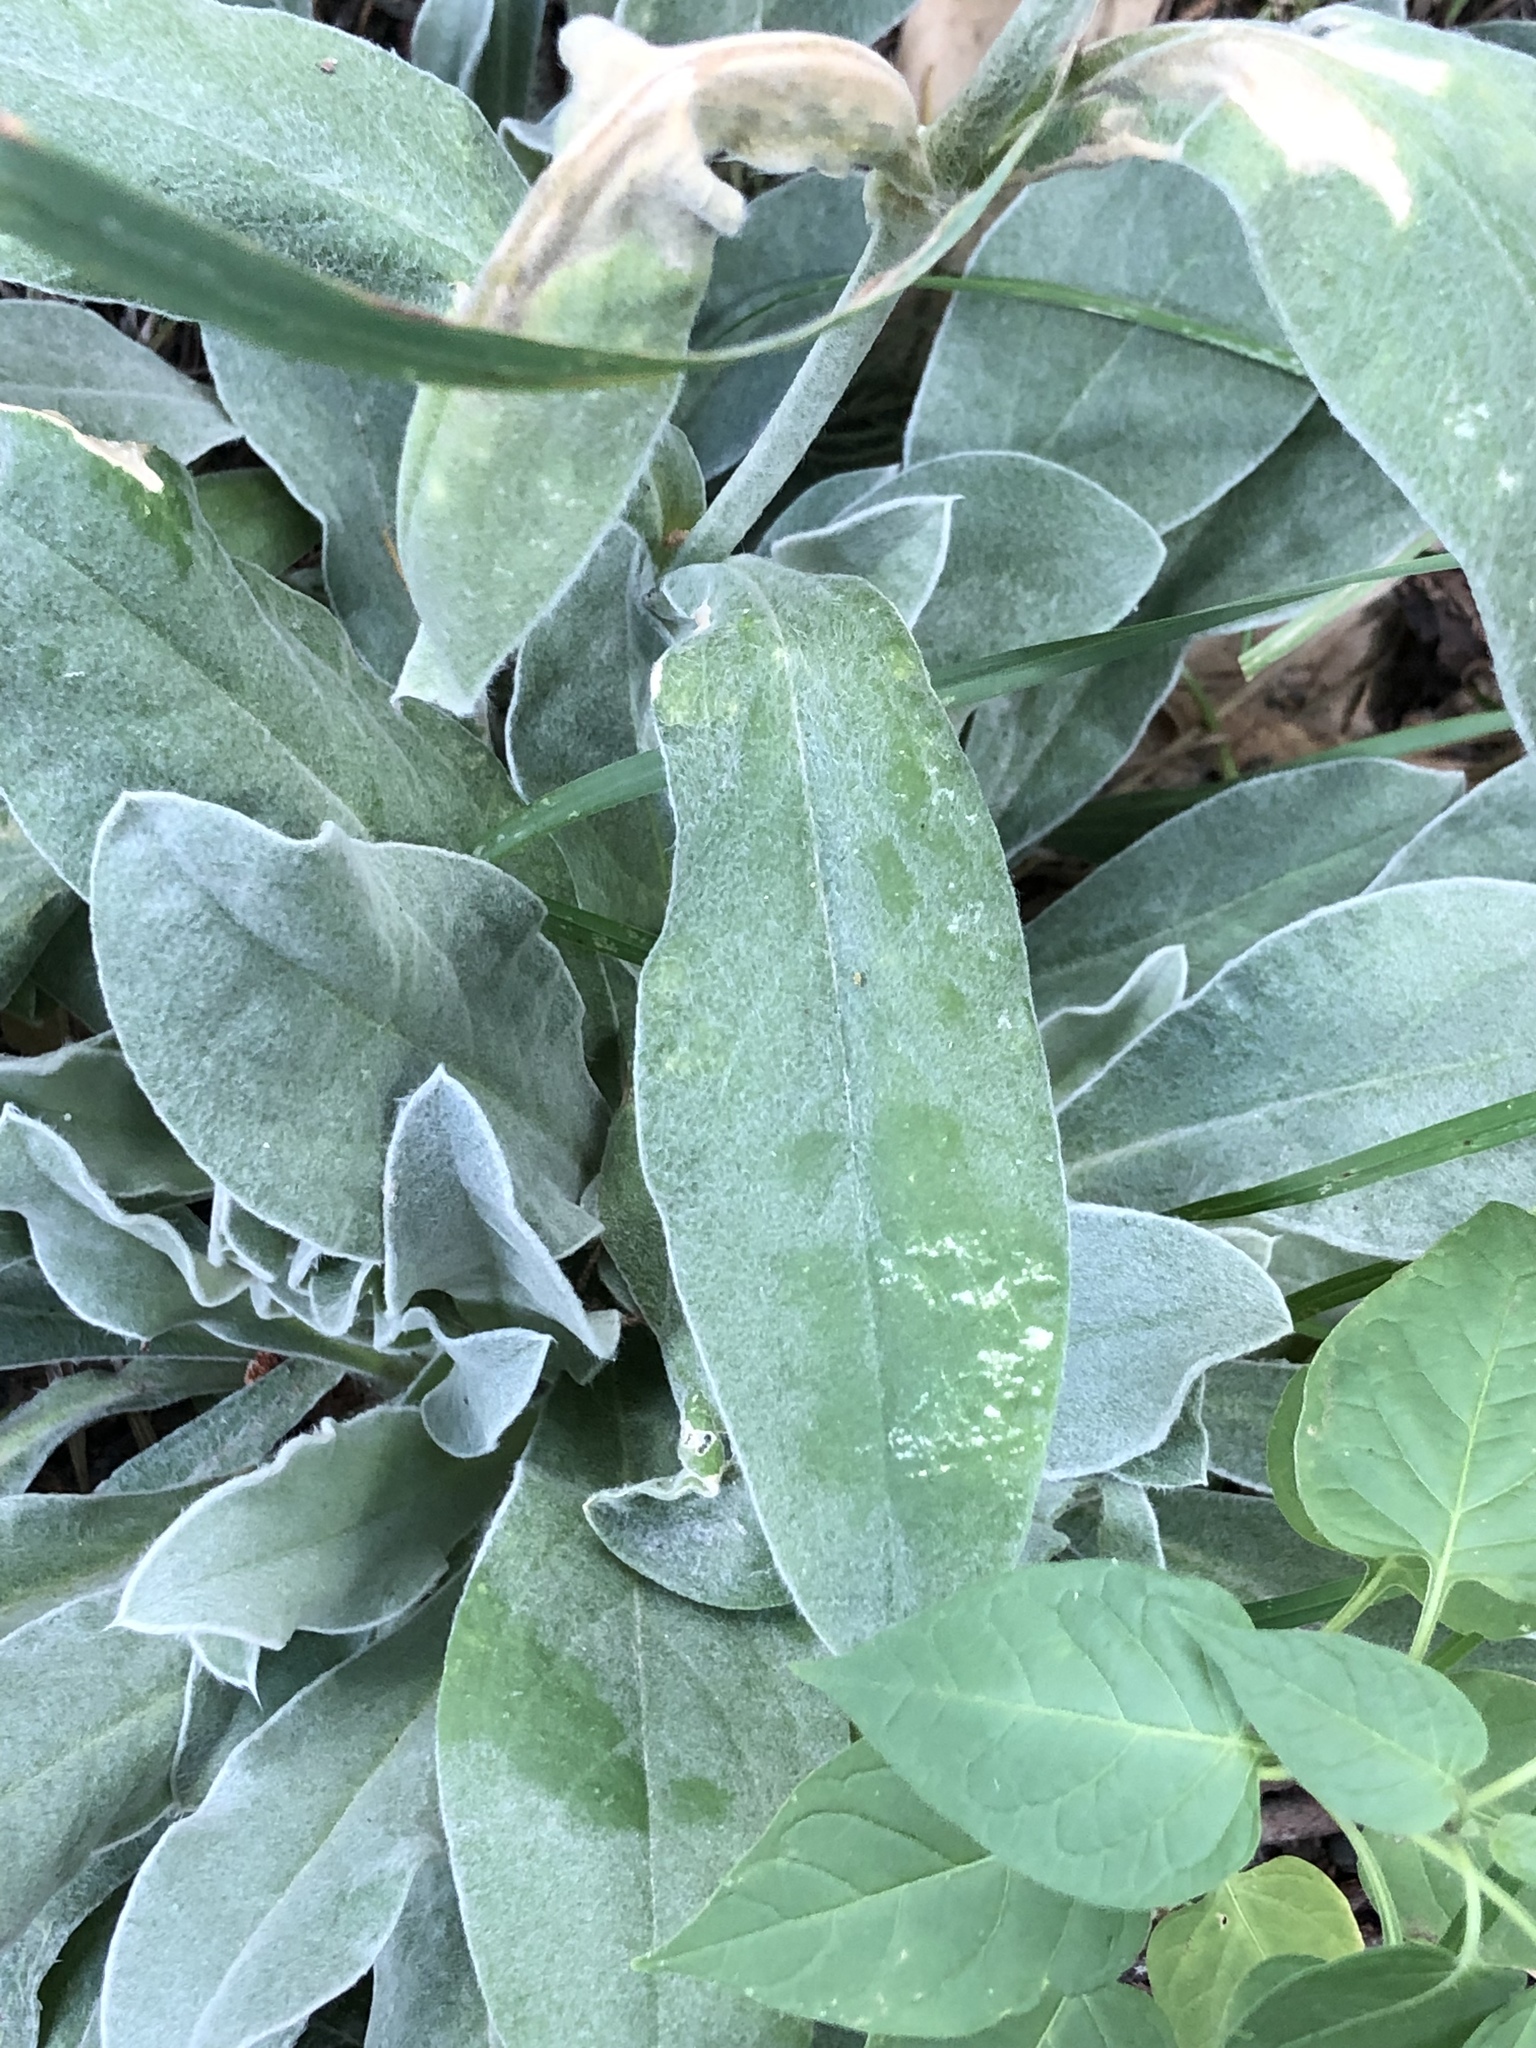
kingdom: Plantae
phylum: Tracheophyta
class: Magnoliopsida
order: Caryophyllales
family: Caryophyllaceae
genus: Silene
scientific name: Silene coronaria
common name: Rose campion
